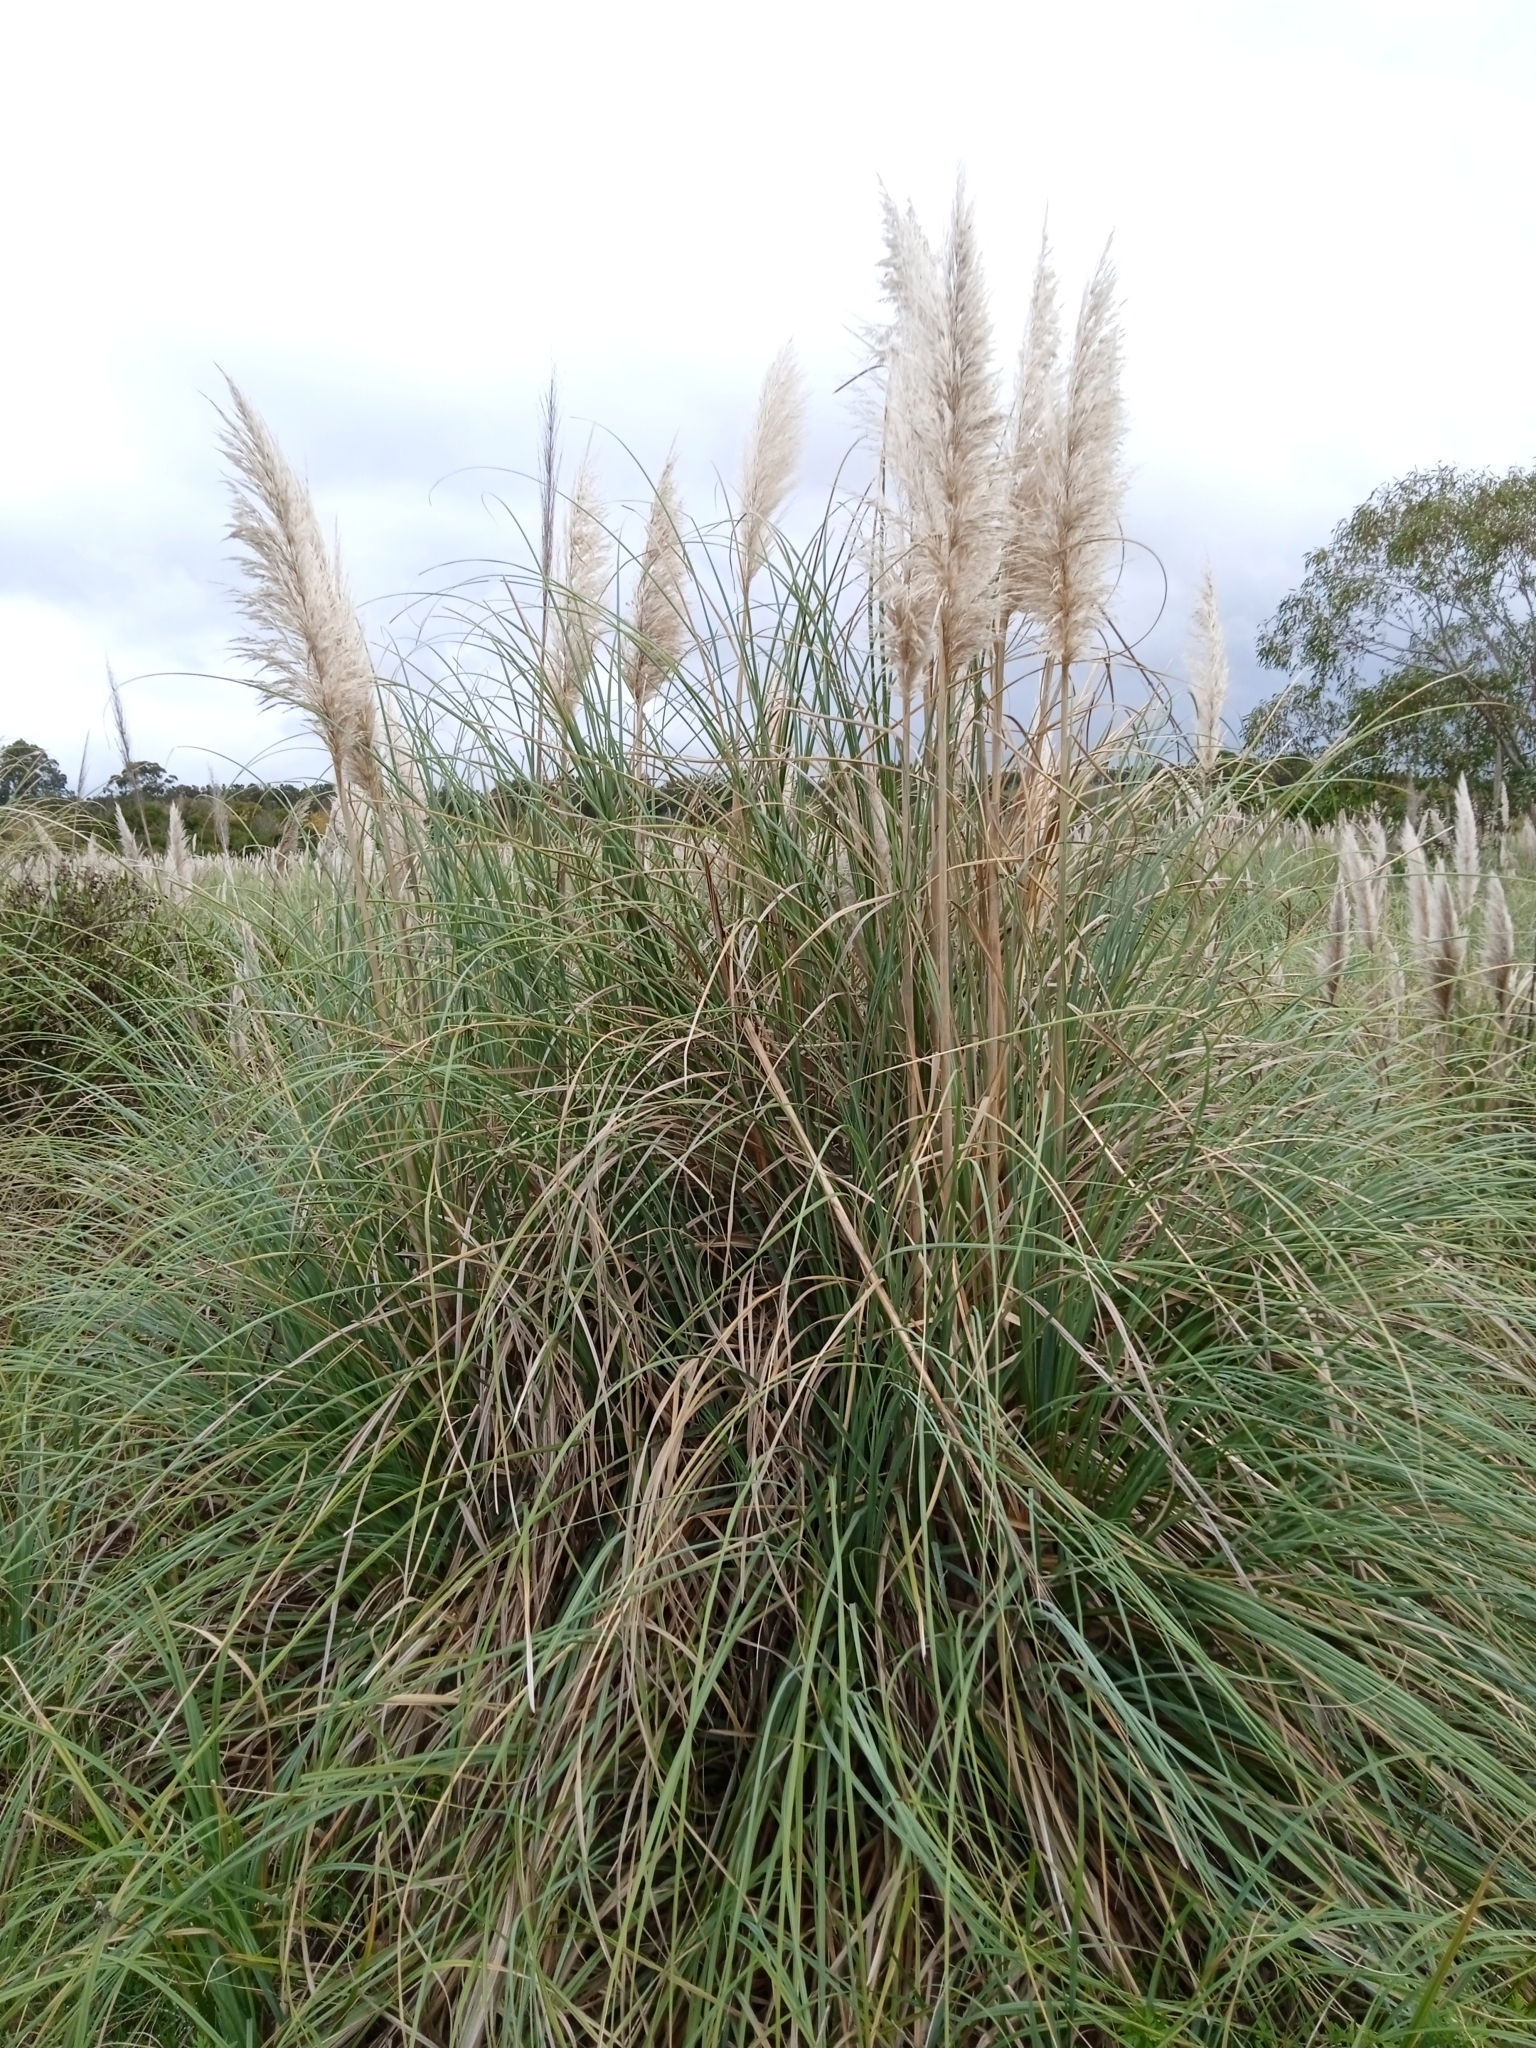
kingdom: Plantae
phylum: Tracheophyta
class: Liliopsida
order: Poales
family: Poaceae
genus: Cortaderia
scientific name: Cortaderia selloana
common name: Uruguayan pampas grass
